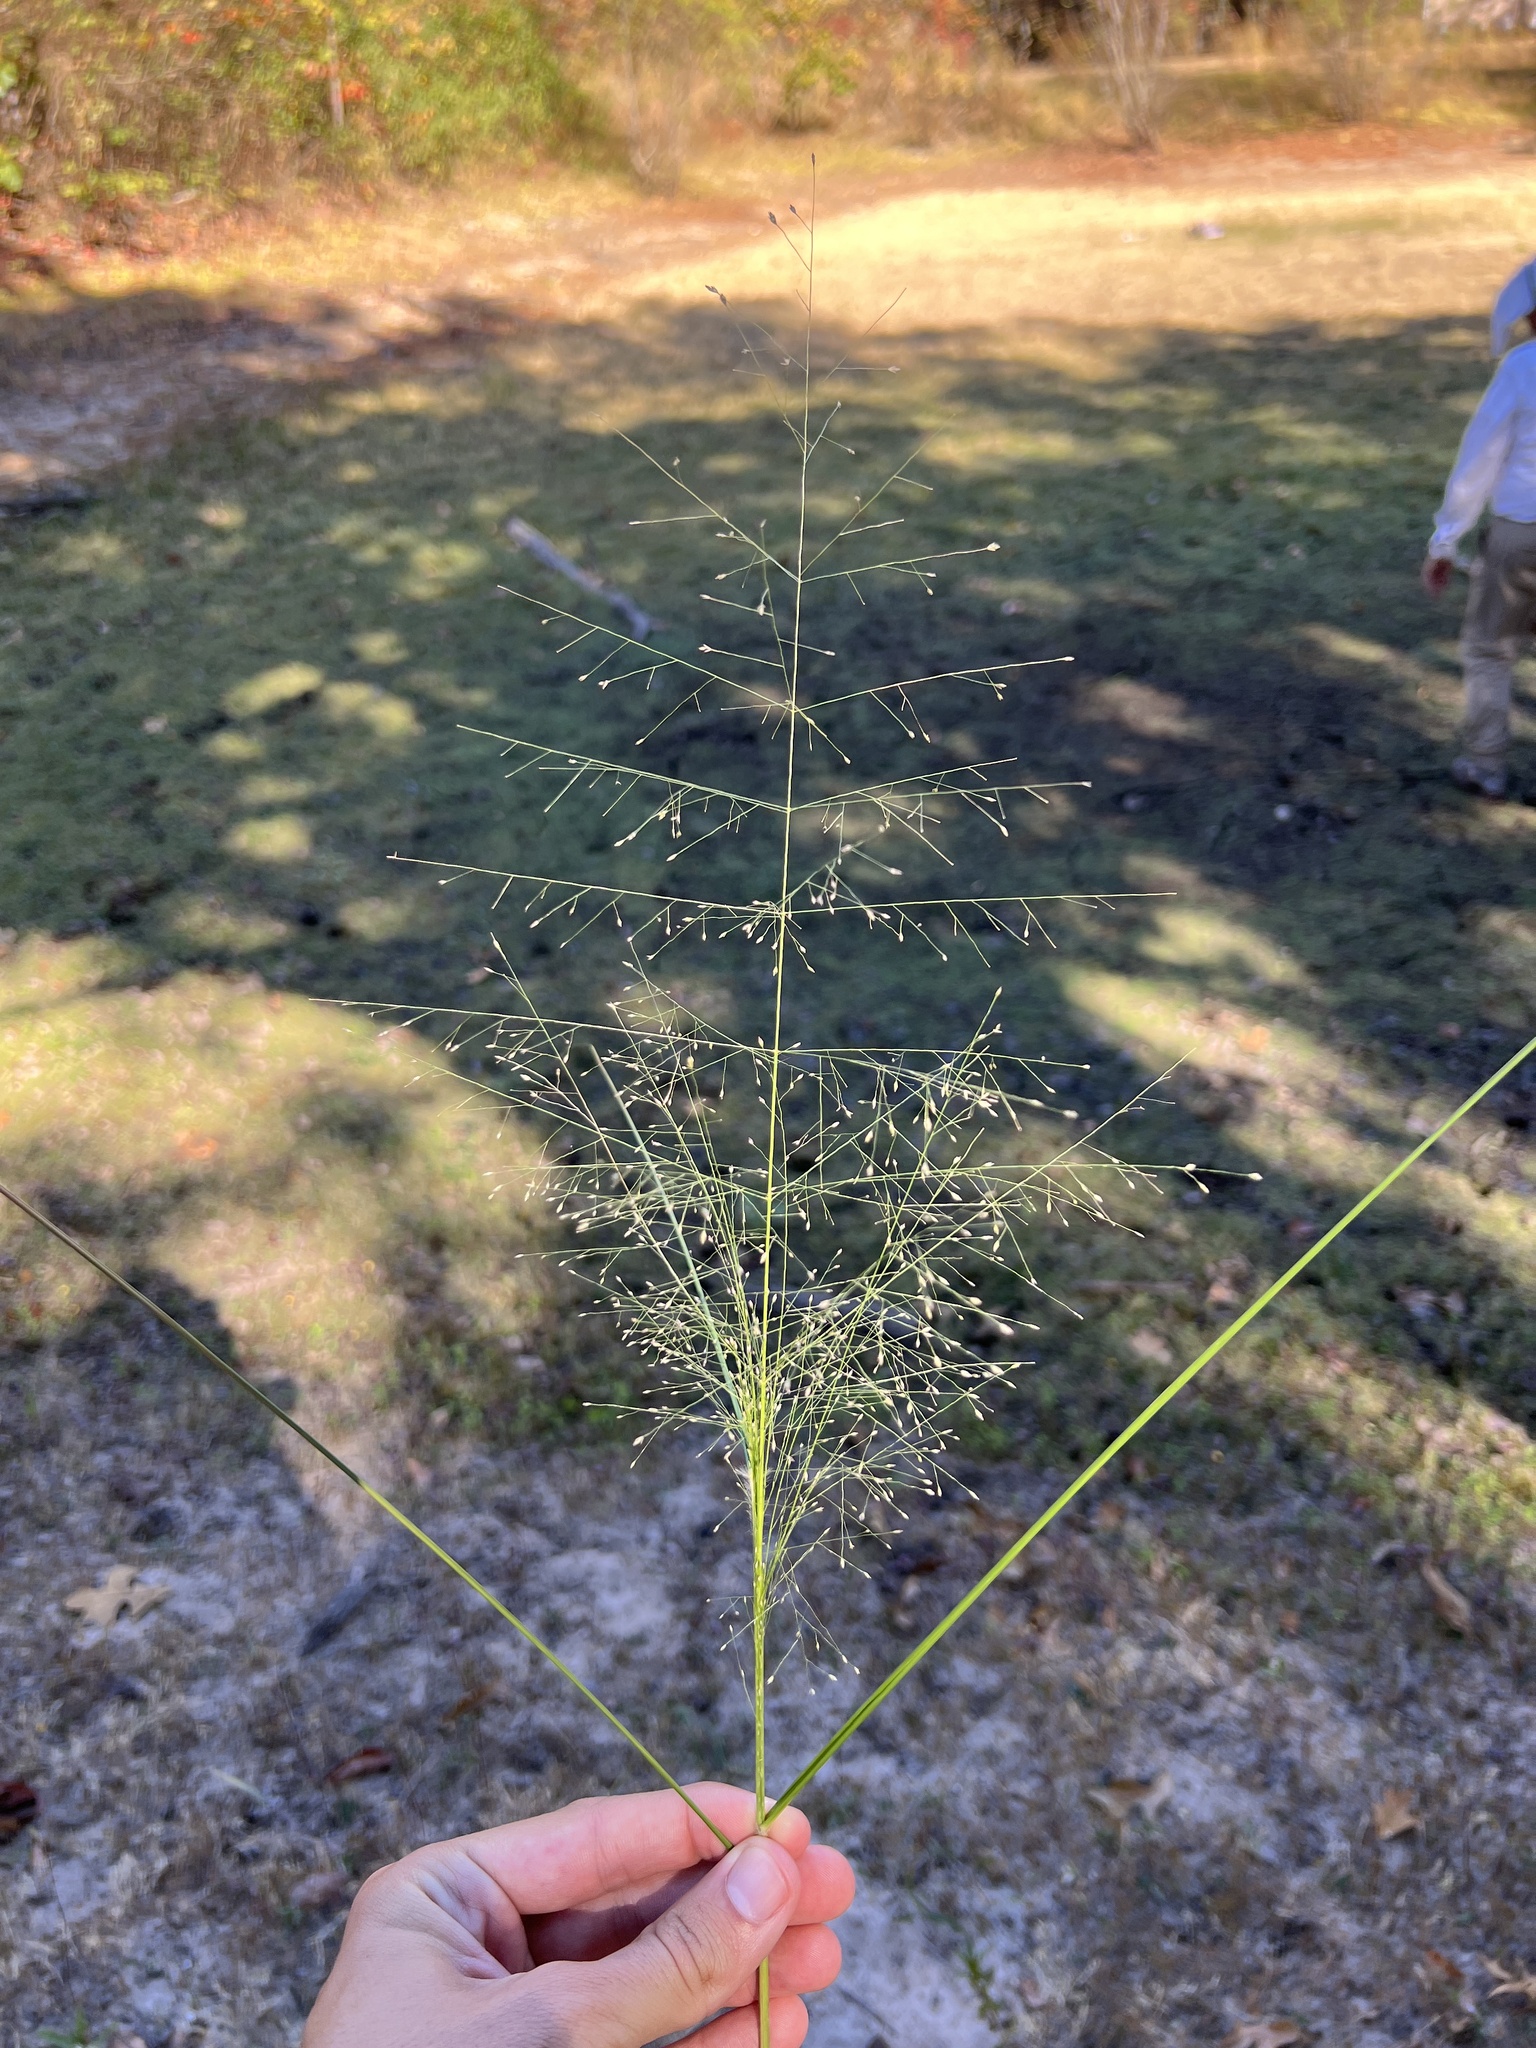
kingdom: Plantae
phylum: Tracheophyta
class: Liliopsida
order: Poales
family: Poaceae
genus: Eragrostis
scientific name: Eragrostis trichodes
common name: Sand love grass
